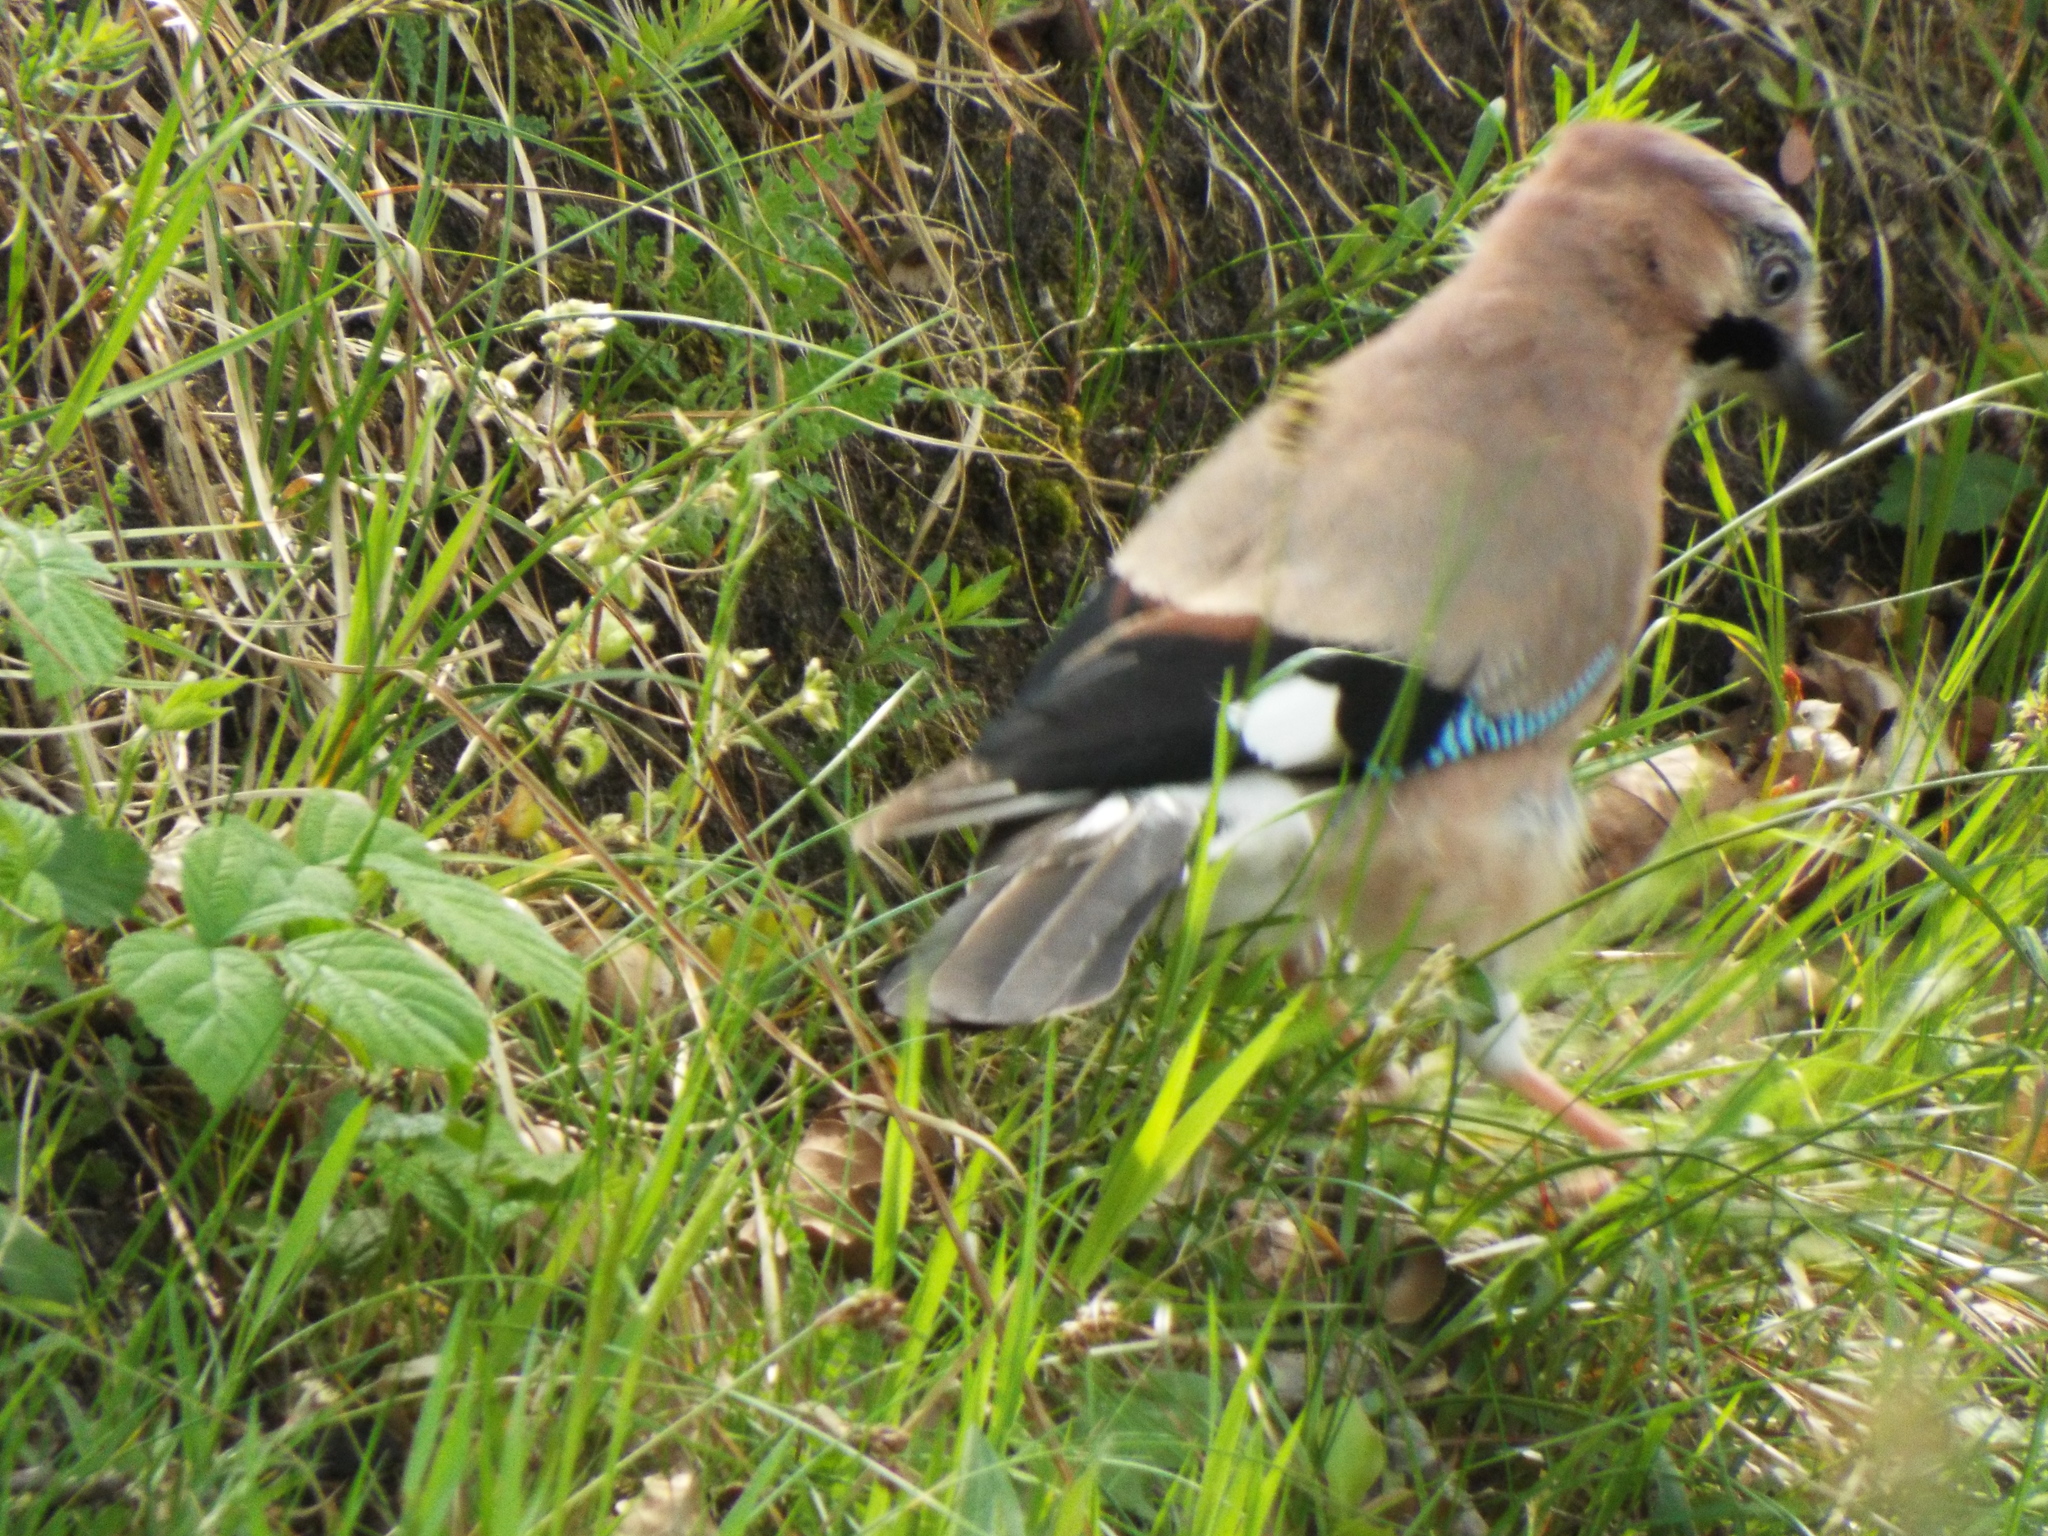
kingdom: Animalia
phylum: Chordata
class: Aves
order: Passeriformes
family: Corvidae
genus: Garrulus
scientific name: Garrulus glandarius
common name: Eurasian jay
